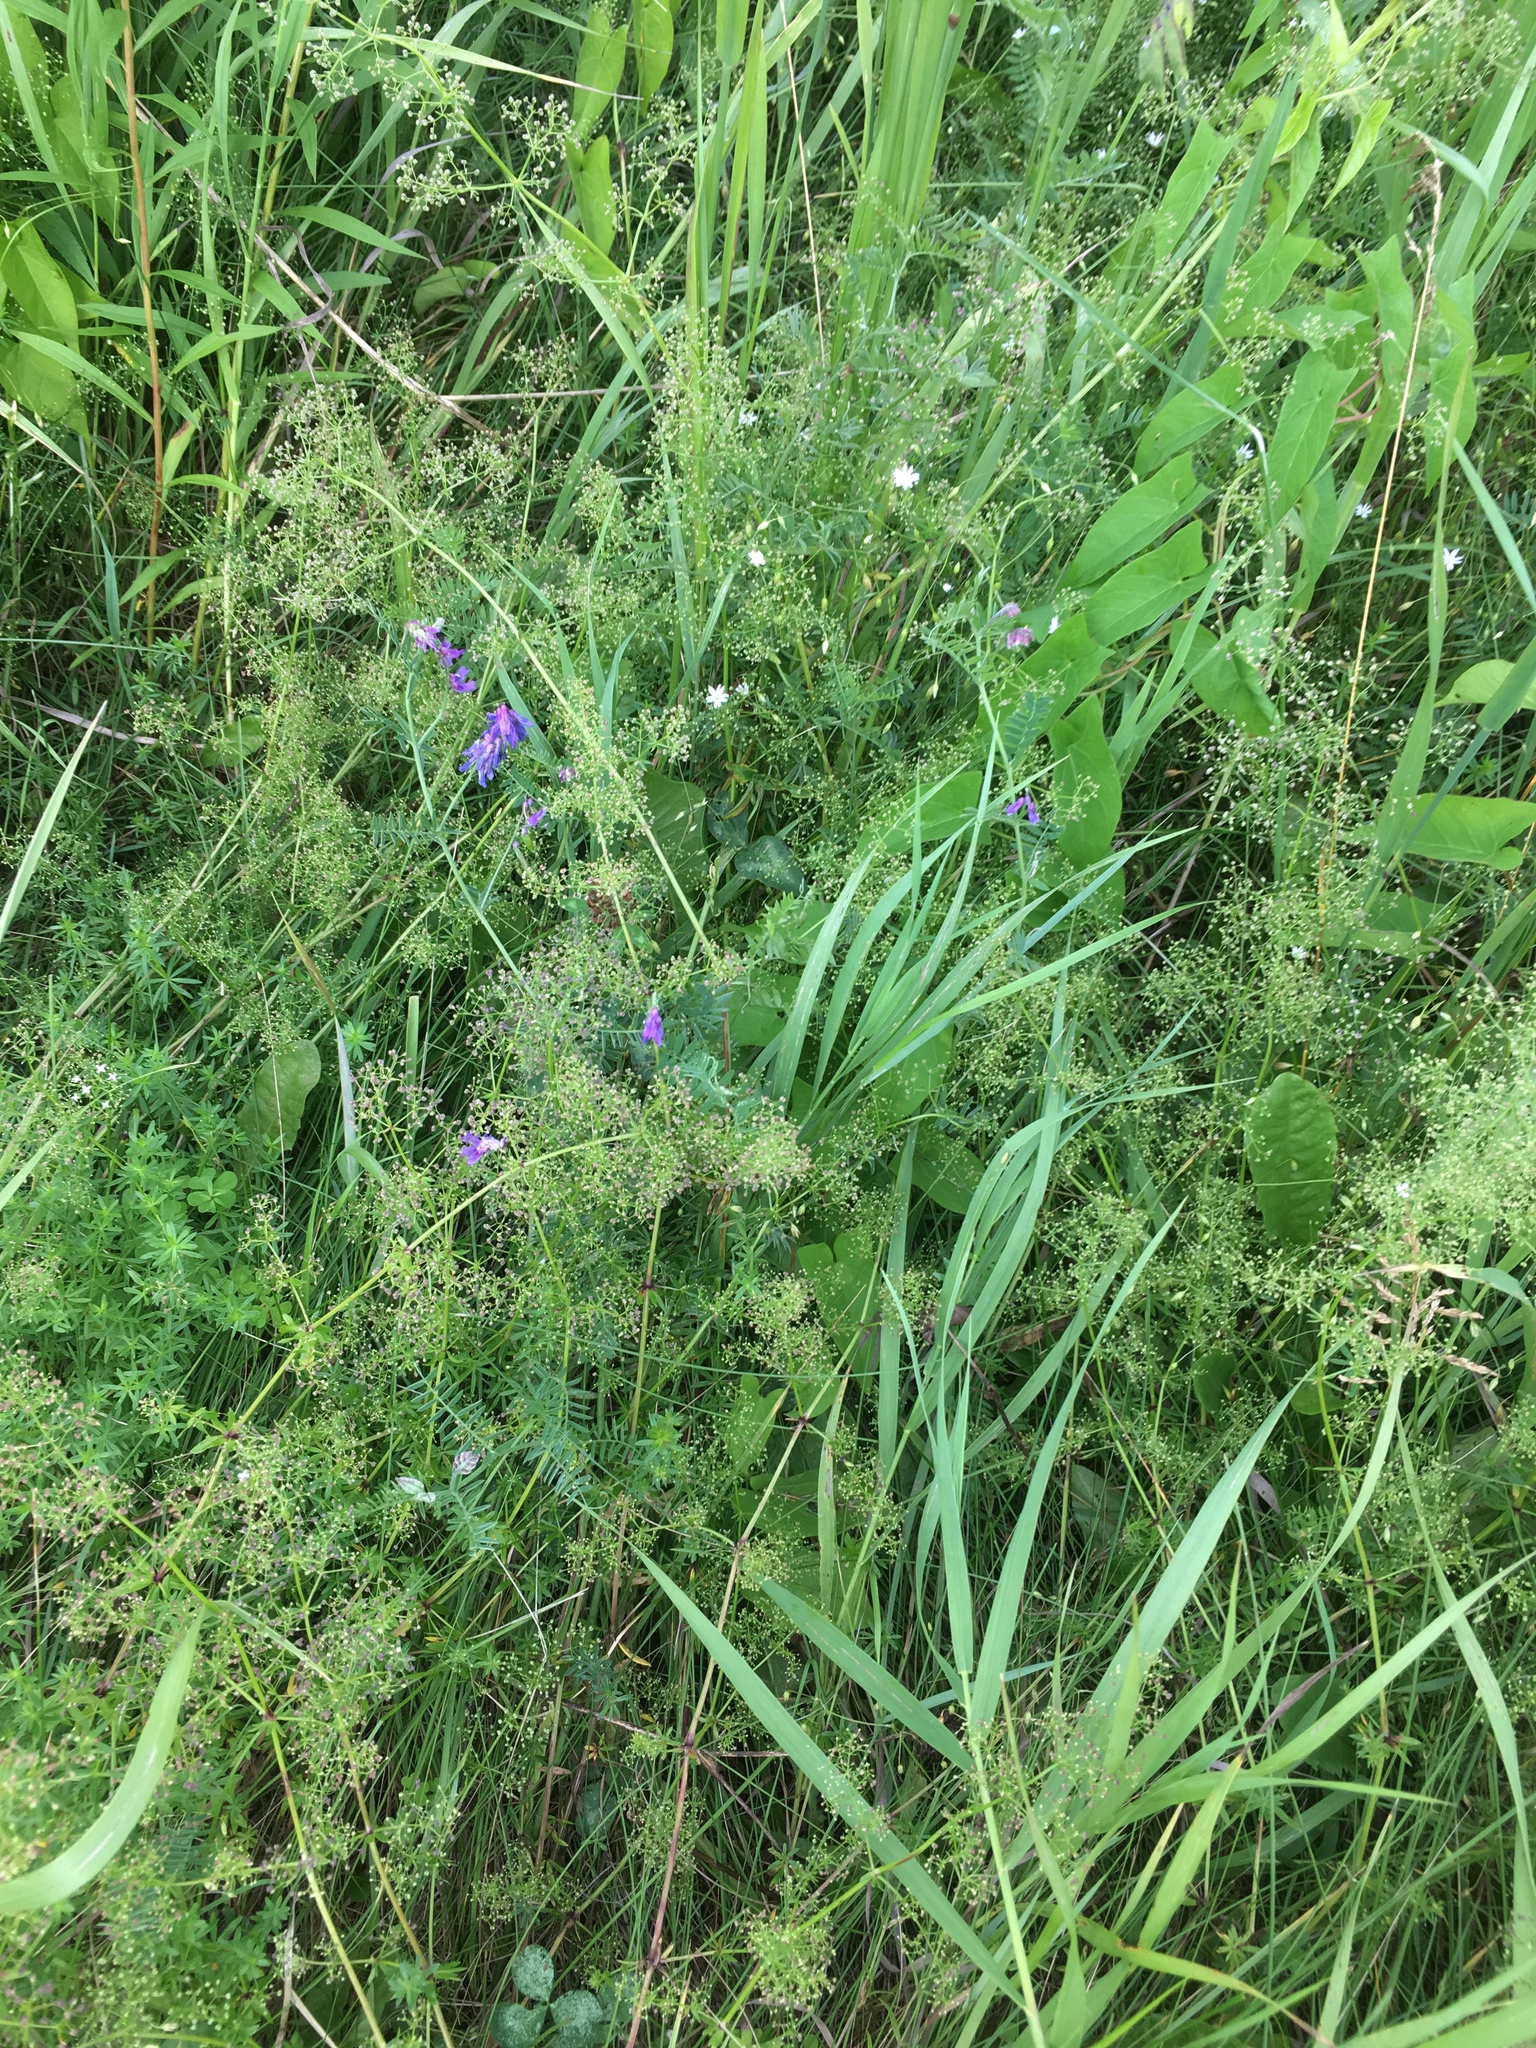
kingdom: Plantae
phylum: Tracheophyta
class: Magnoliopsida
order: Gentianales
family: Rubiaceae
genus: Galium
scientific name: Galium mollugo
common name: Hedge bedstraw
